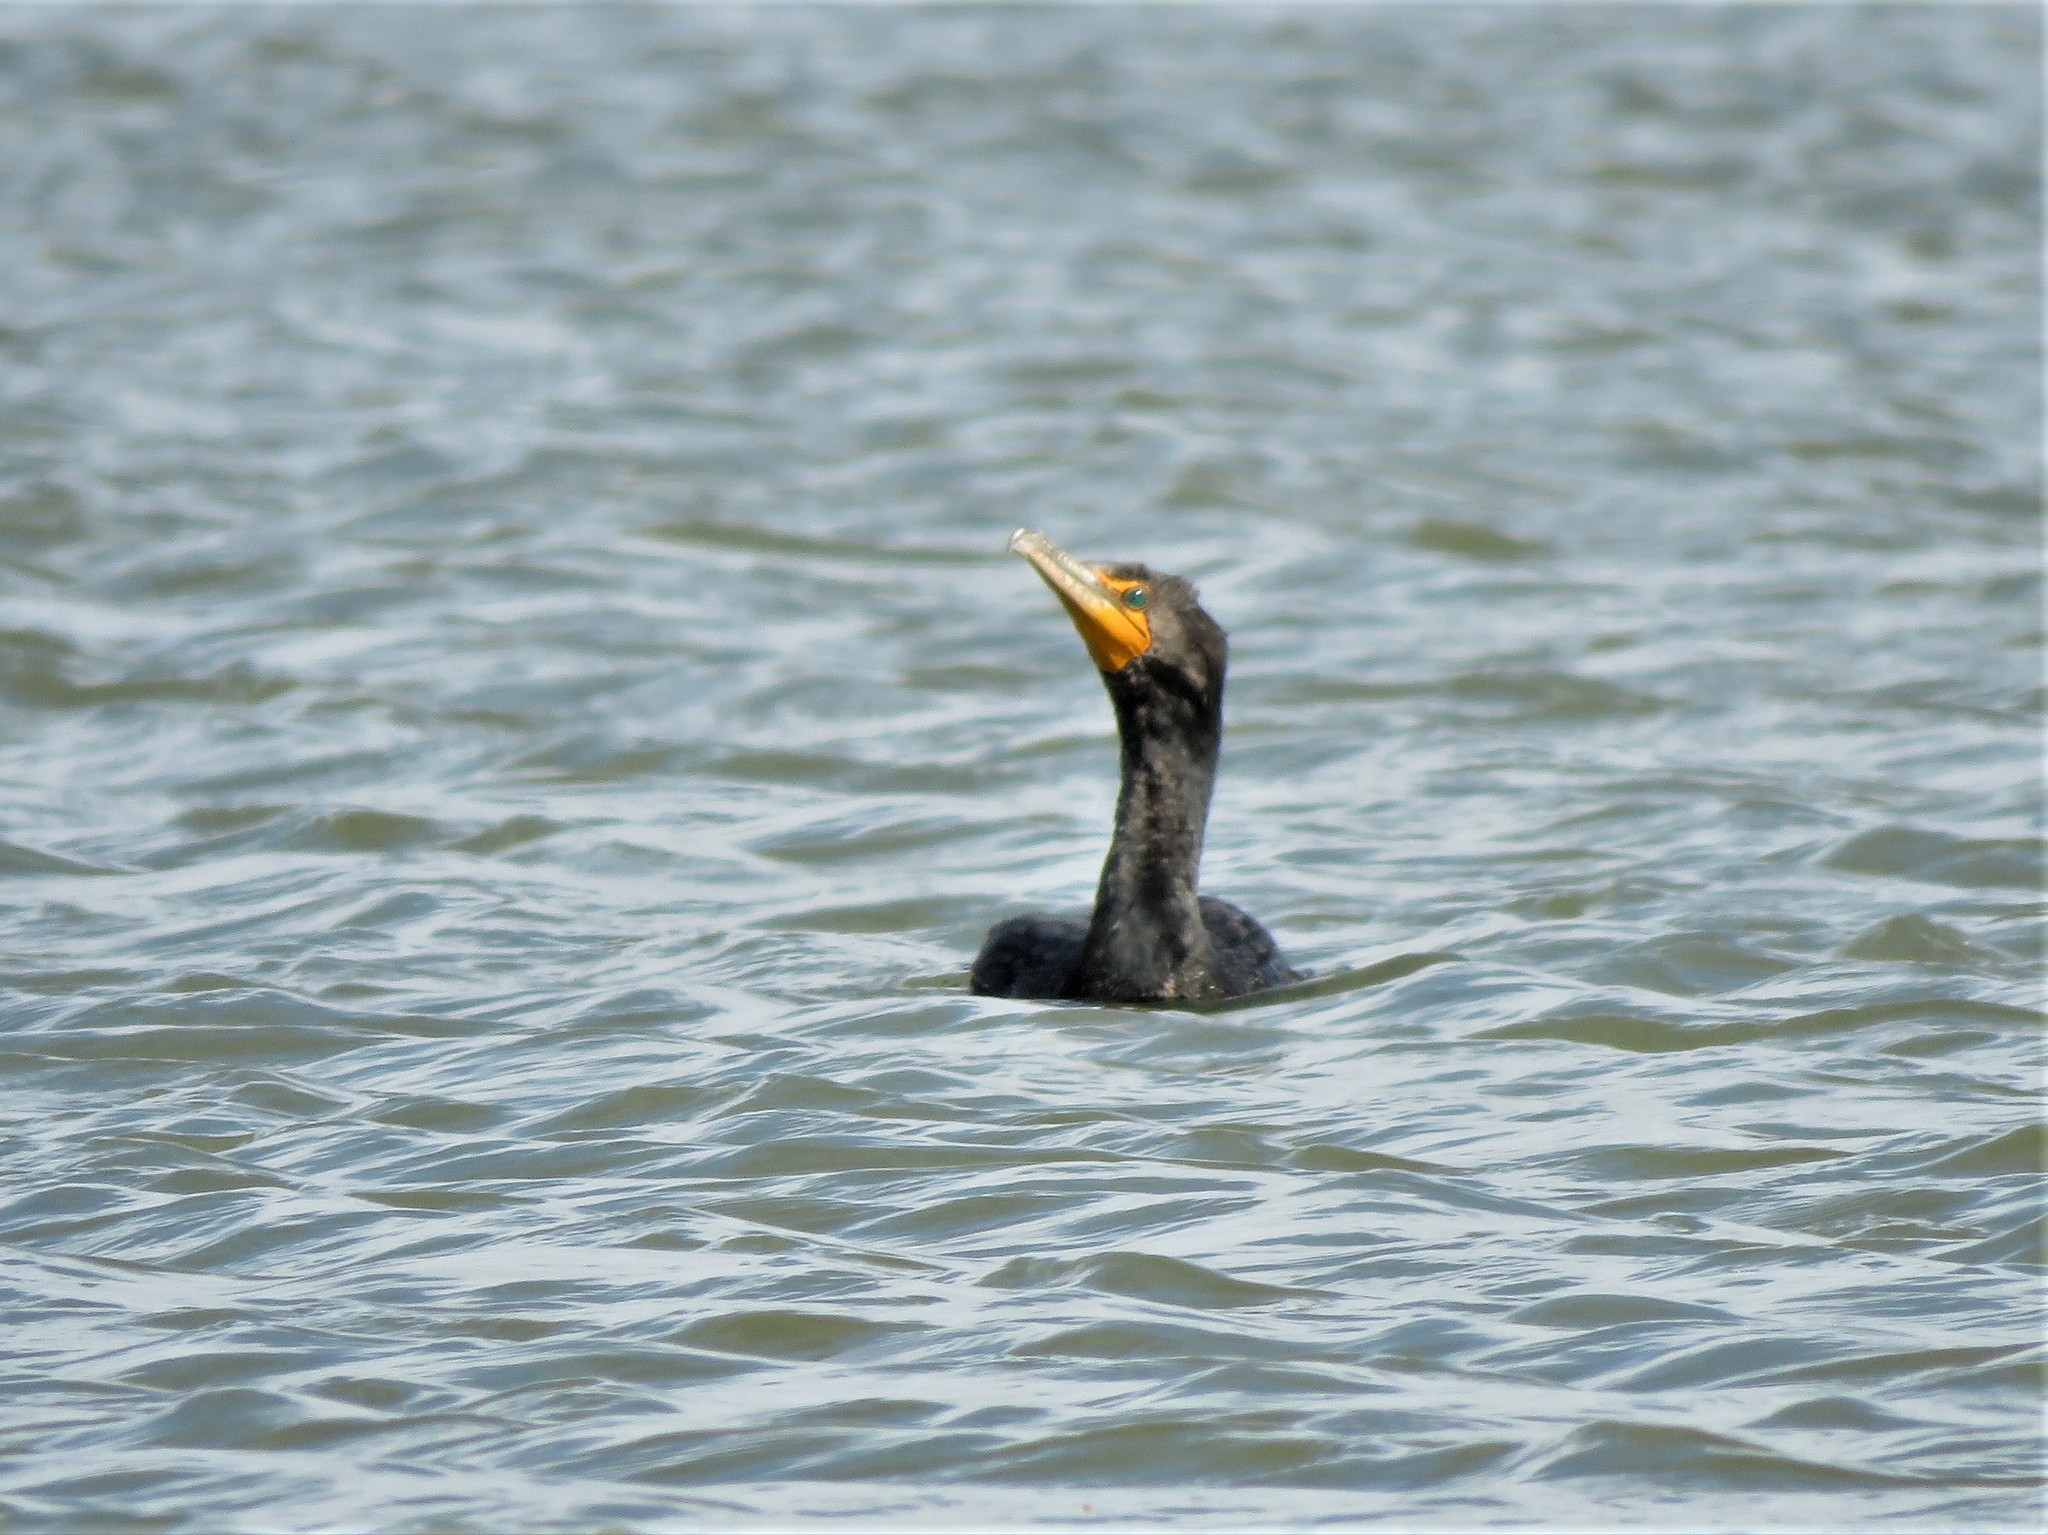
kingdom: Animalia
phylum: Chordata
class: Aves
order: Suliformes
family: Phalacrocoracidae
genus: Phalacrocorax
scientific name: Phalacrocorax auritus
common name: Double-crested cormorant
